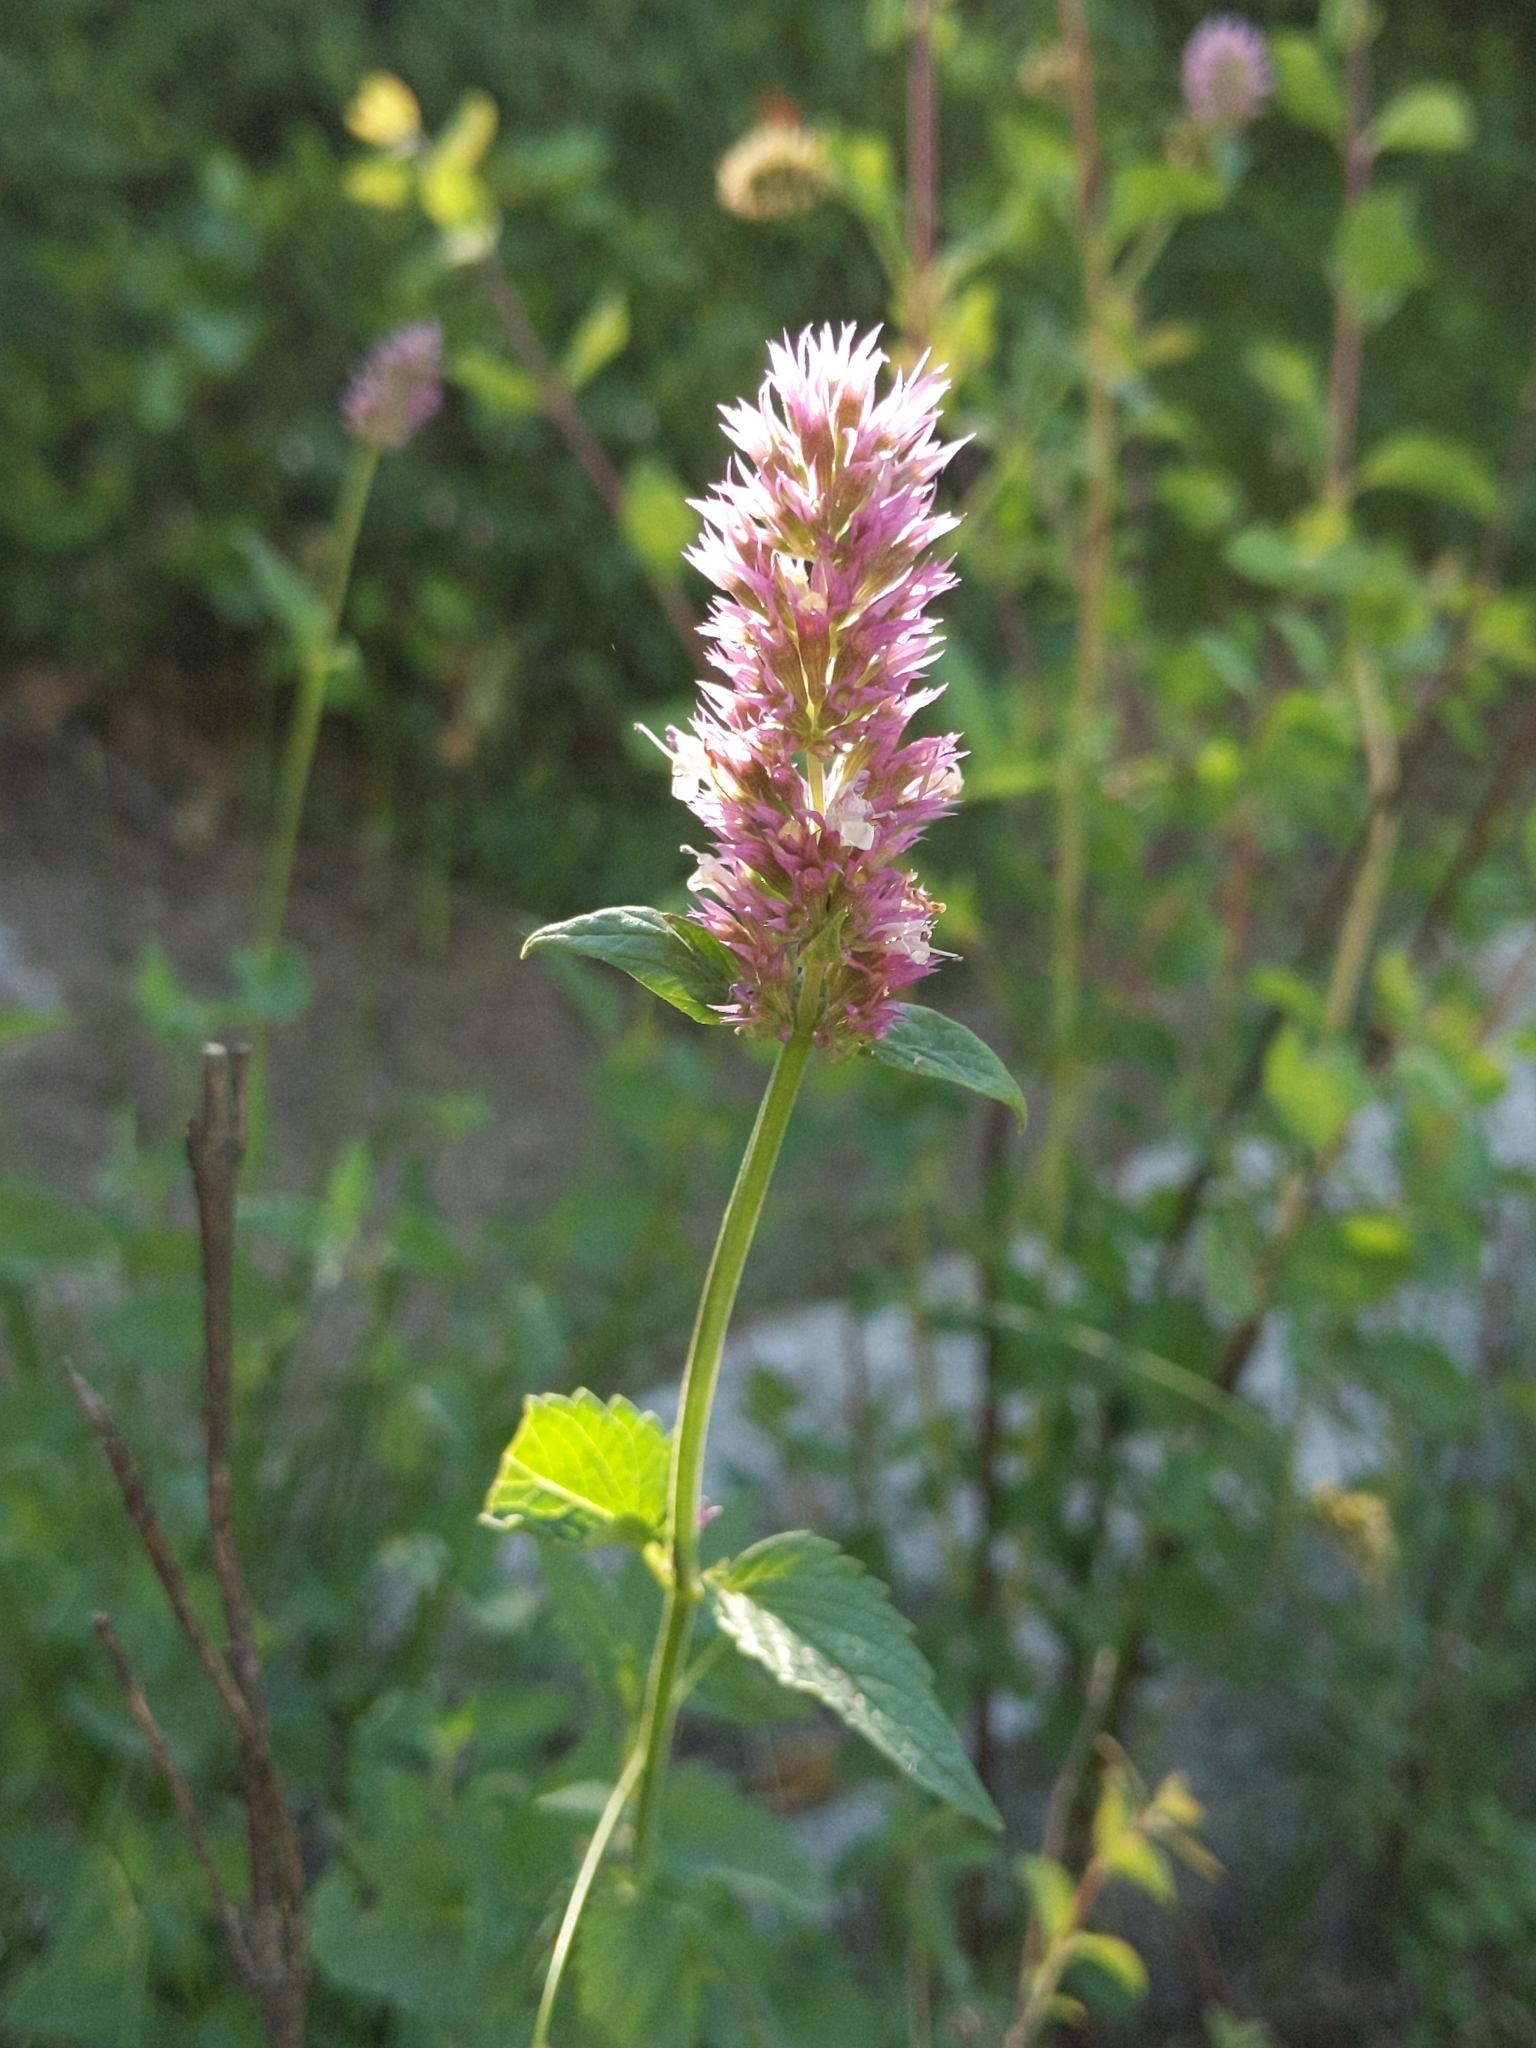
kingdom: Plantae
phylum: Tracheophyta
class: Magnoliopsida
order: Lamiales
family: Lamiaceae
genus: Agastache
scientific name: Agastache urticifolia
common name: Horsemint giant hyssop
